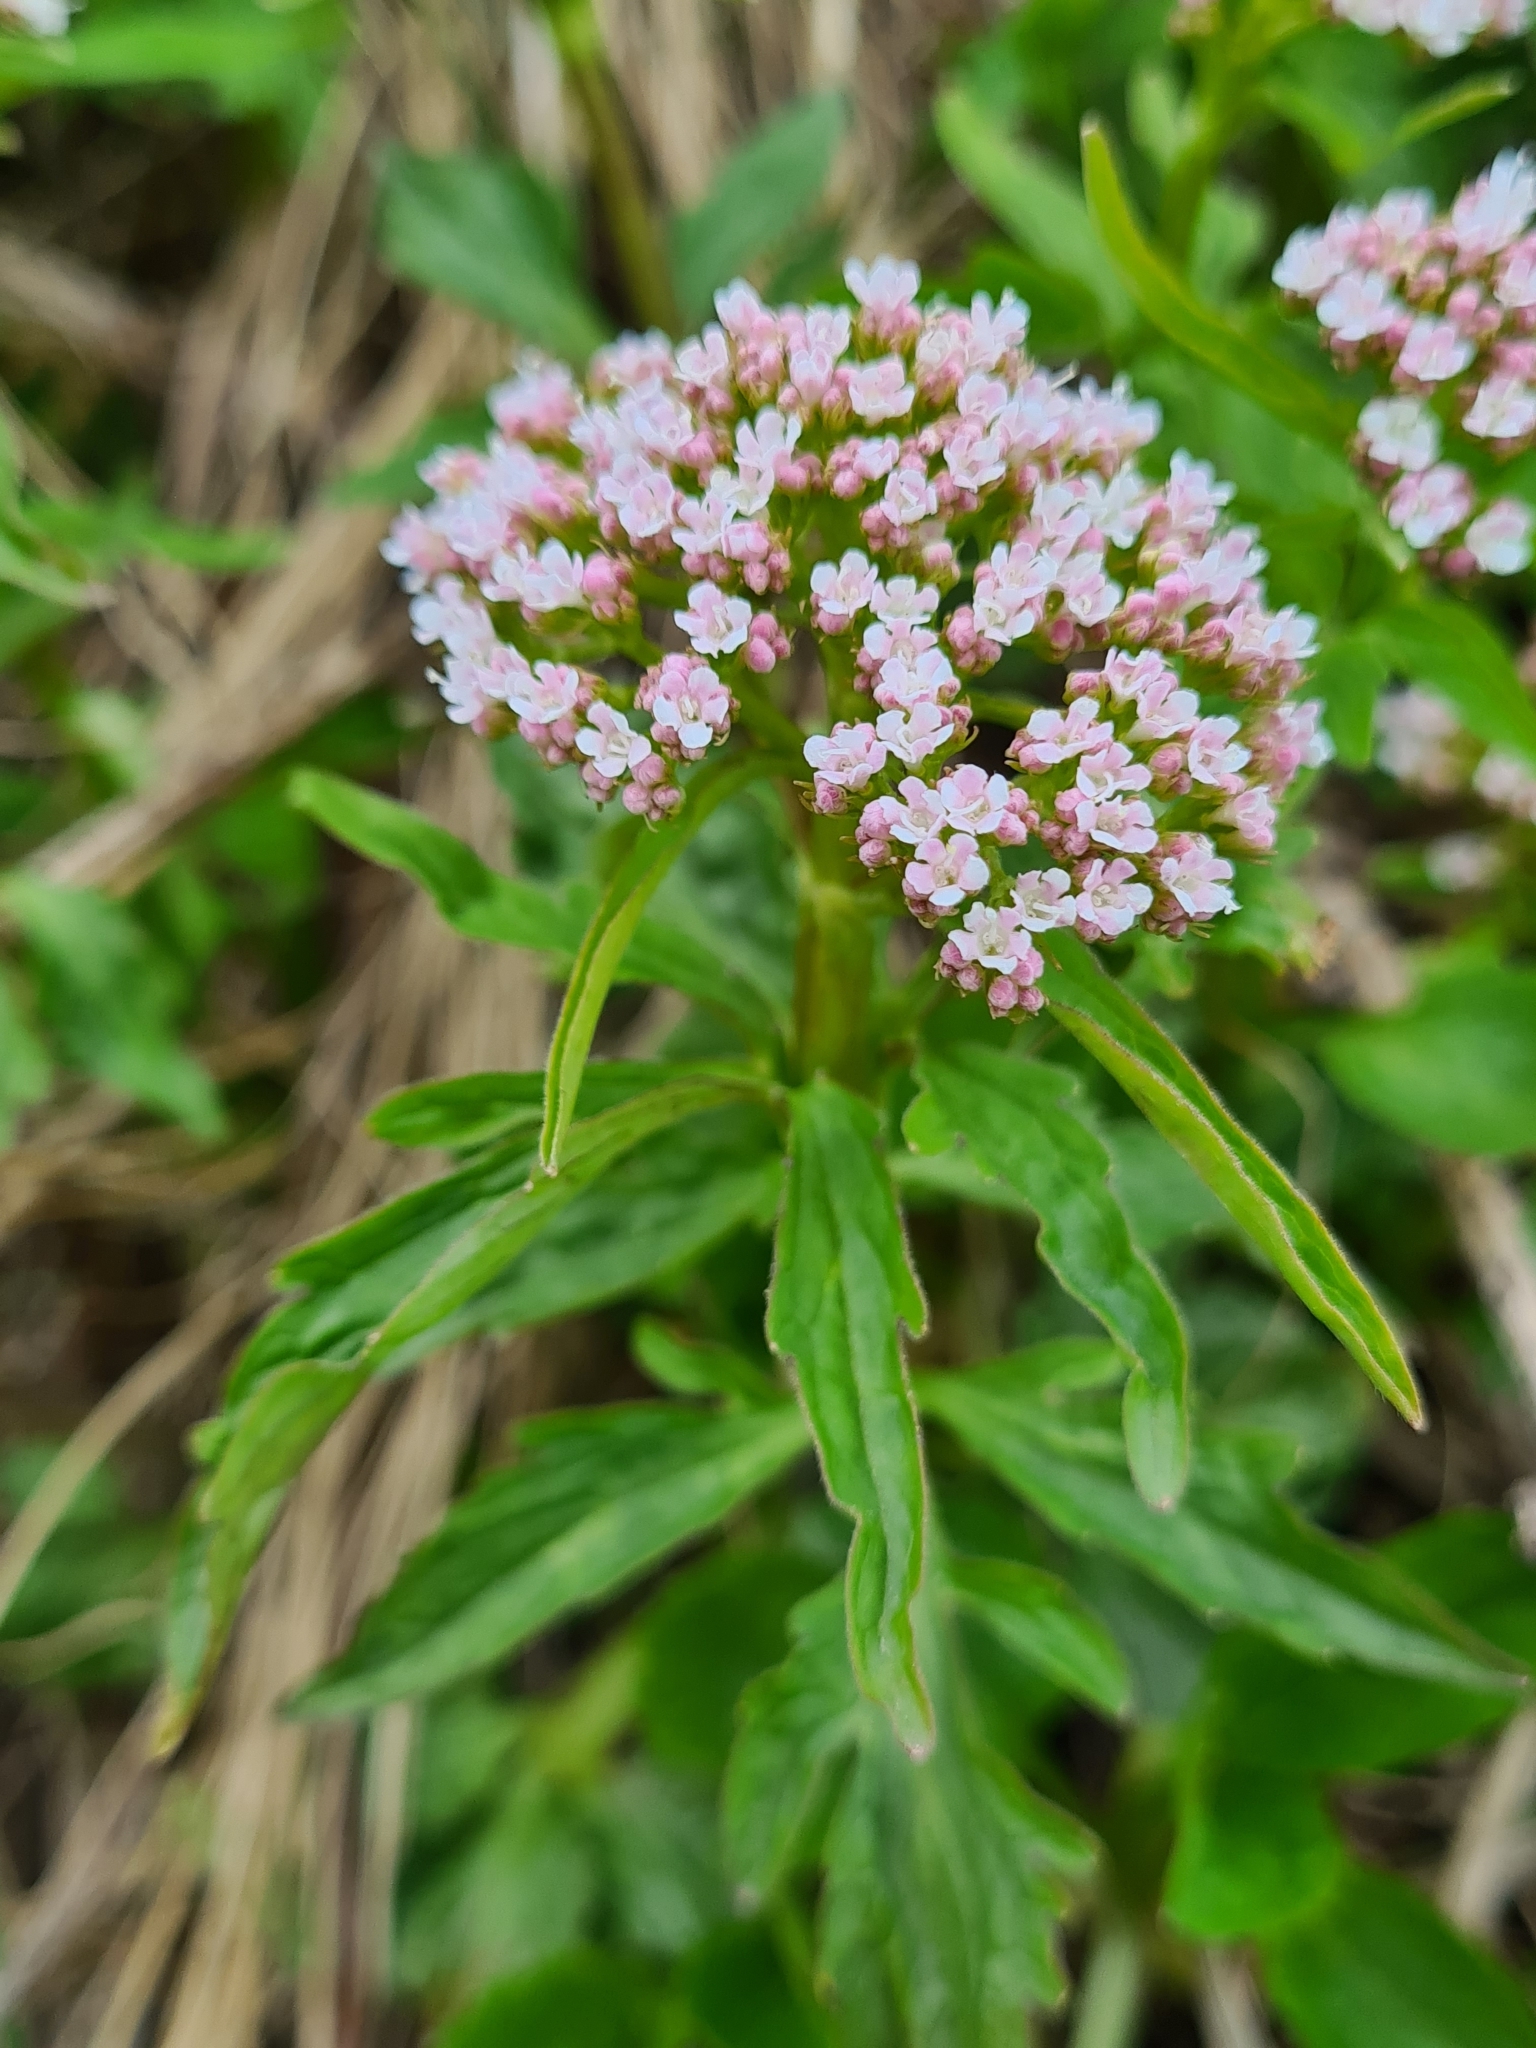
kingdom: Plantae
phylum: Tracheophyta
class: Magnoliopsida
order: Dipsacales
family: Caprifoliaceae
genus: Valeriana
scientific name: Valeriana tripteris
